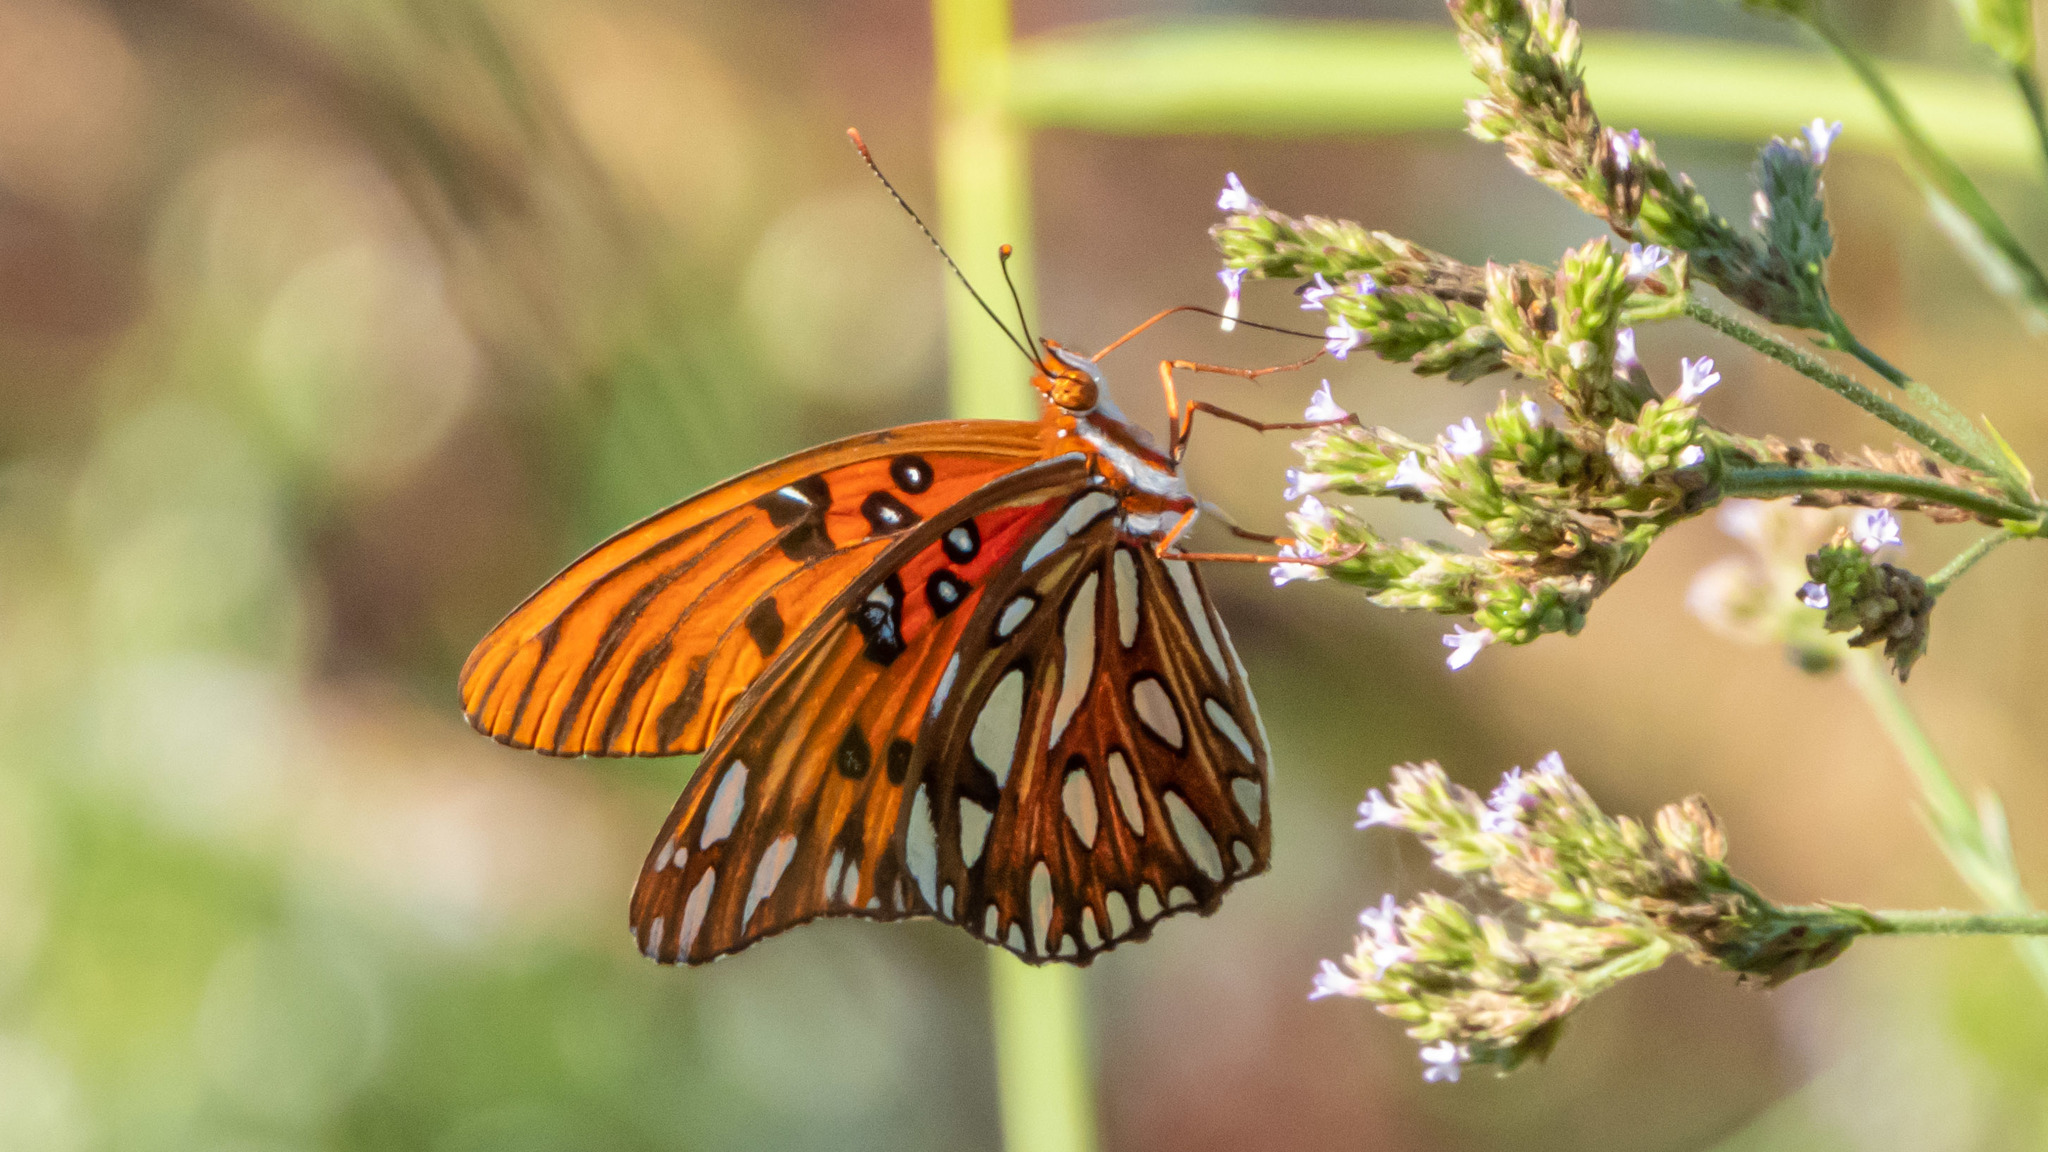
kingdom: Animalia
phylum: Arthropoda
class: Insecta
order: Lepidoptera
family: Nymphalidae
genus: Dione
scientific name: Dione vanillae
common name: Gulf fritillary
